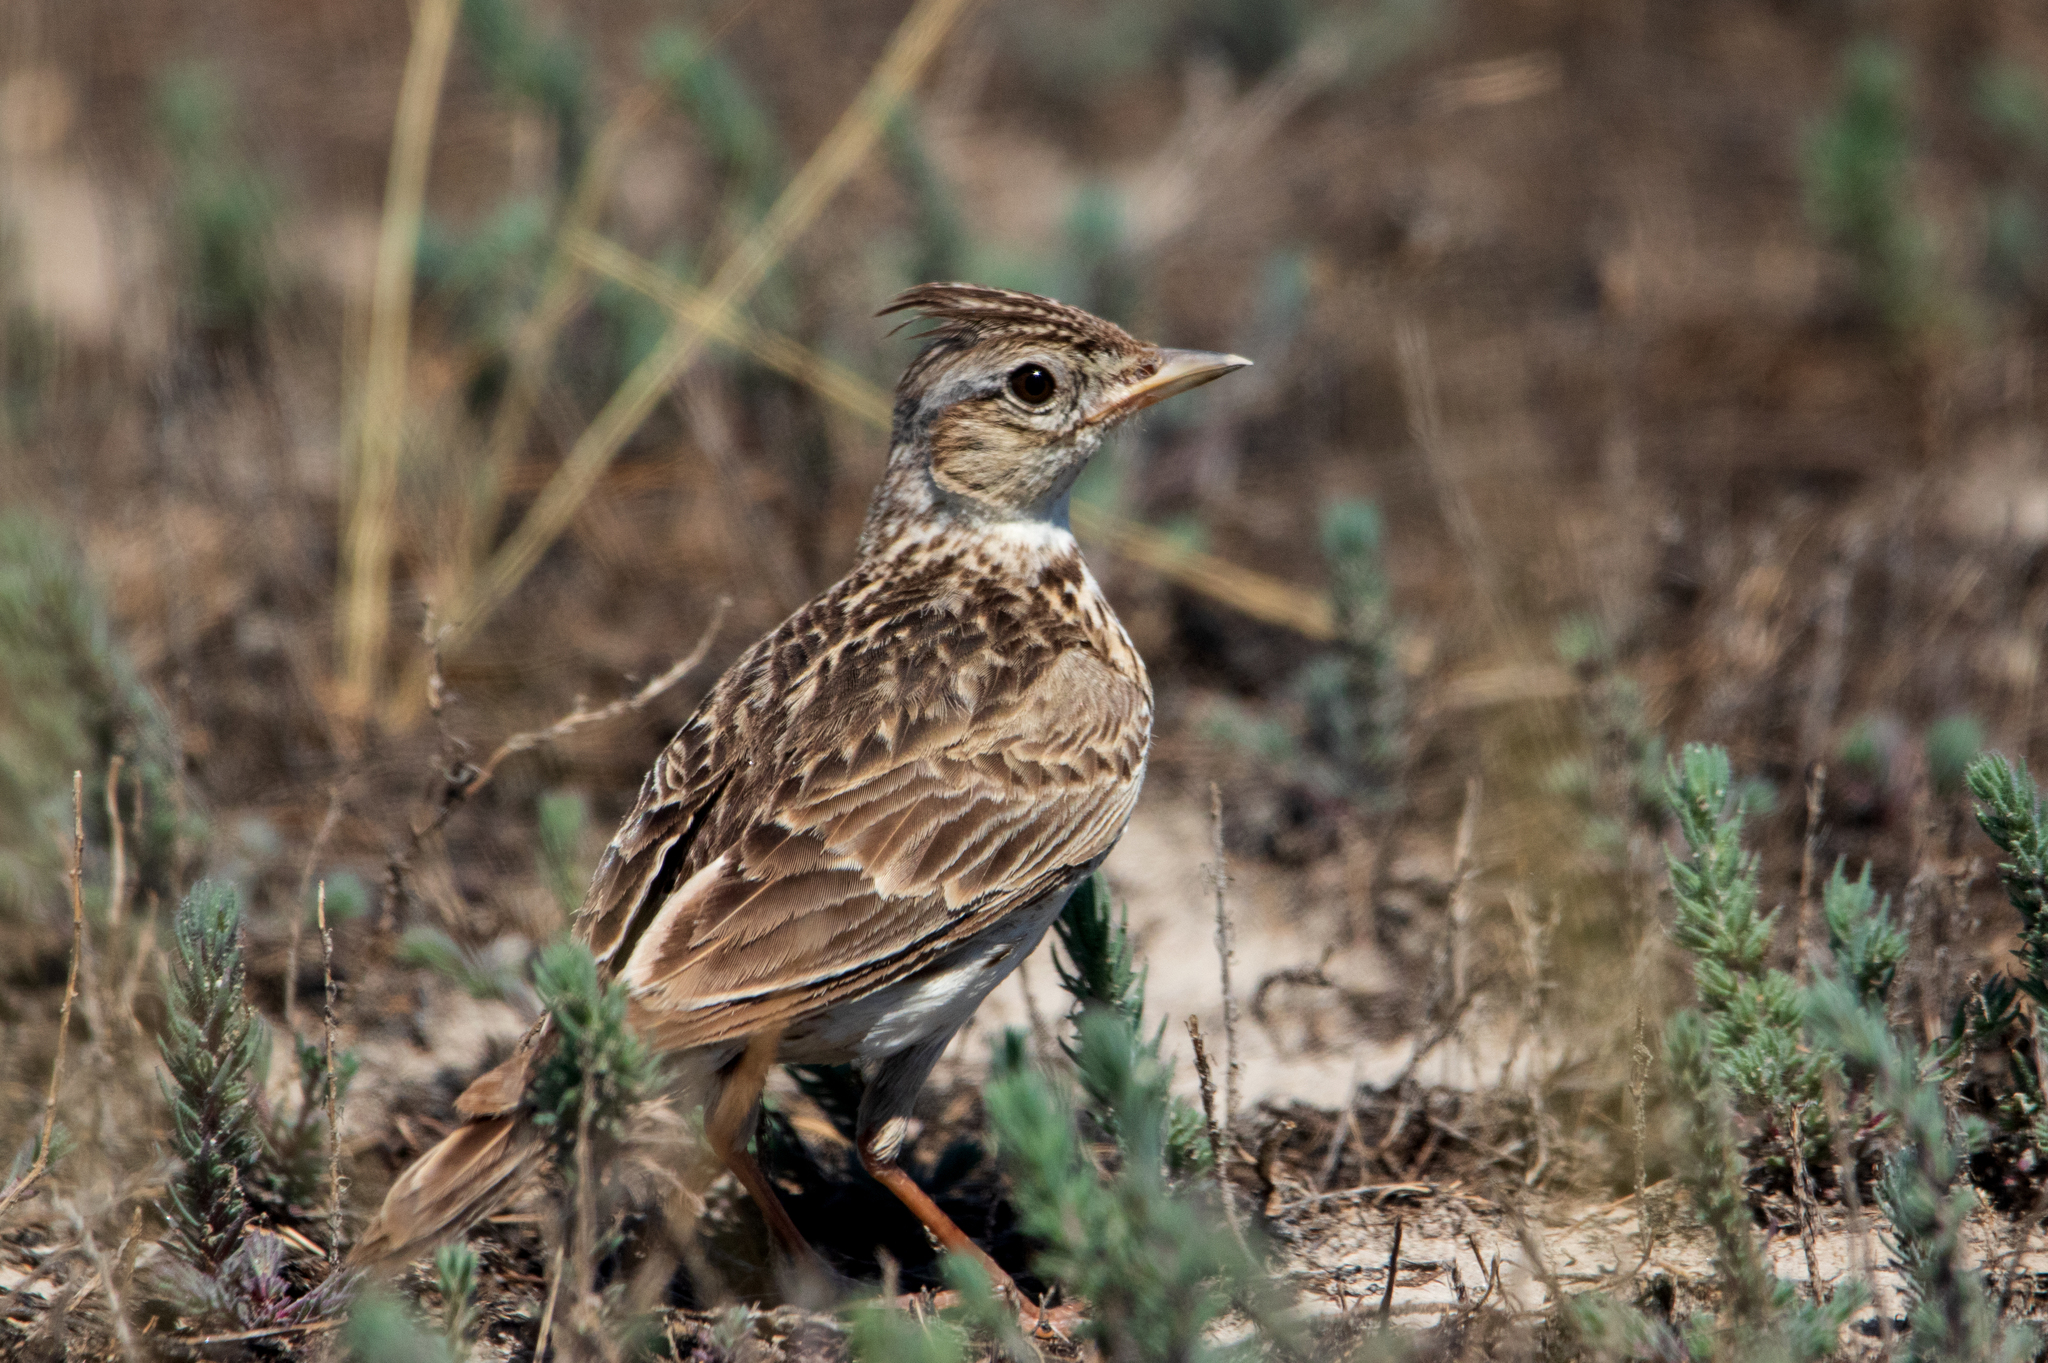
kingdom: Animalia
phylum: Chordata
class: Aves
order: Passeriformes
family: Alaudidae
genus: Alauda
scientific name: Alauda arvensis
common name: Eurasian skylark
